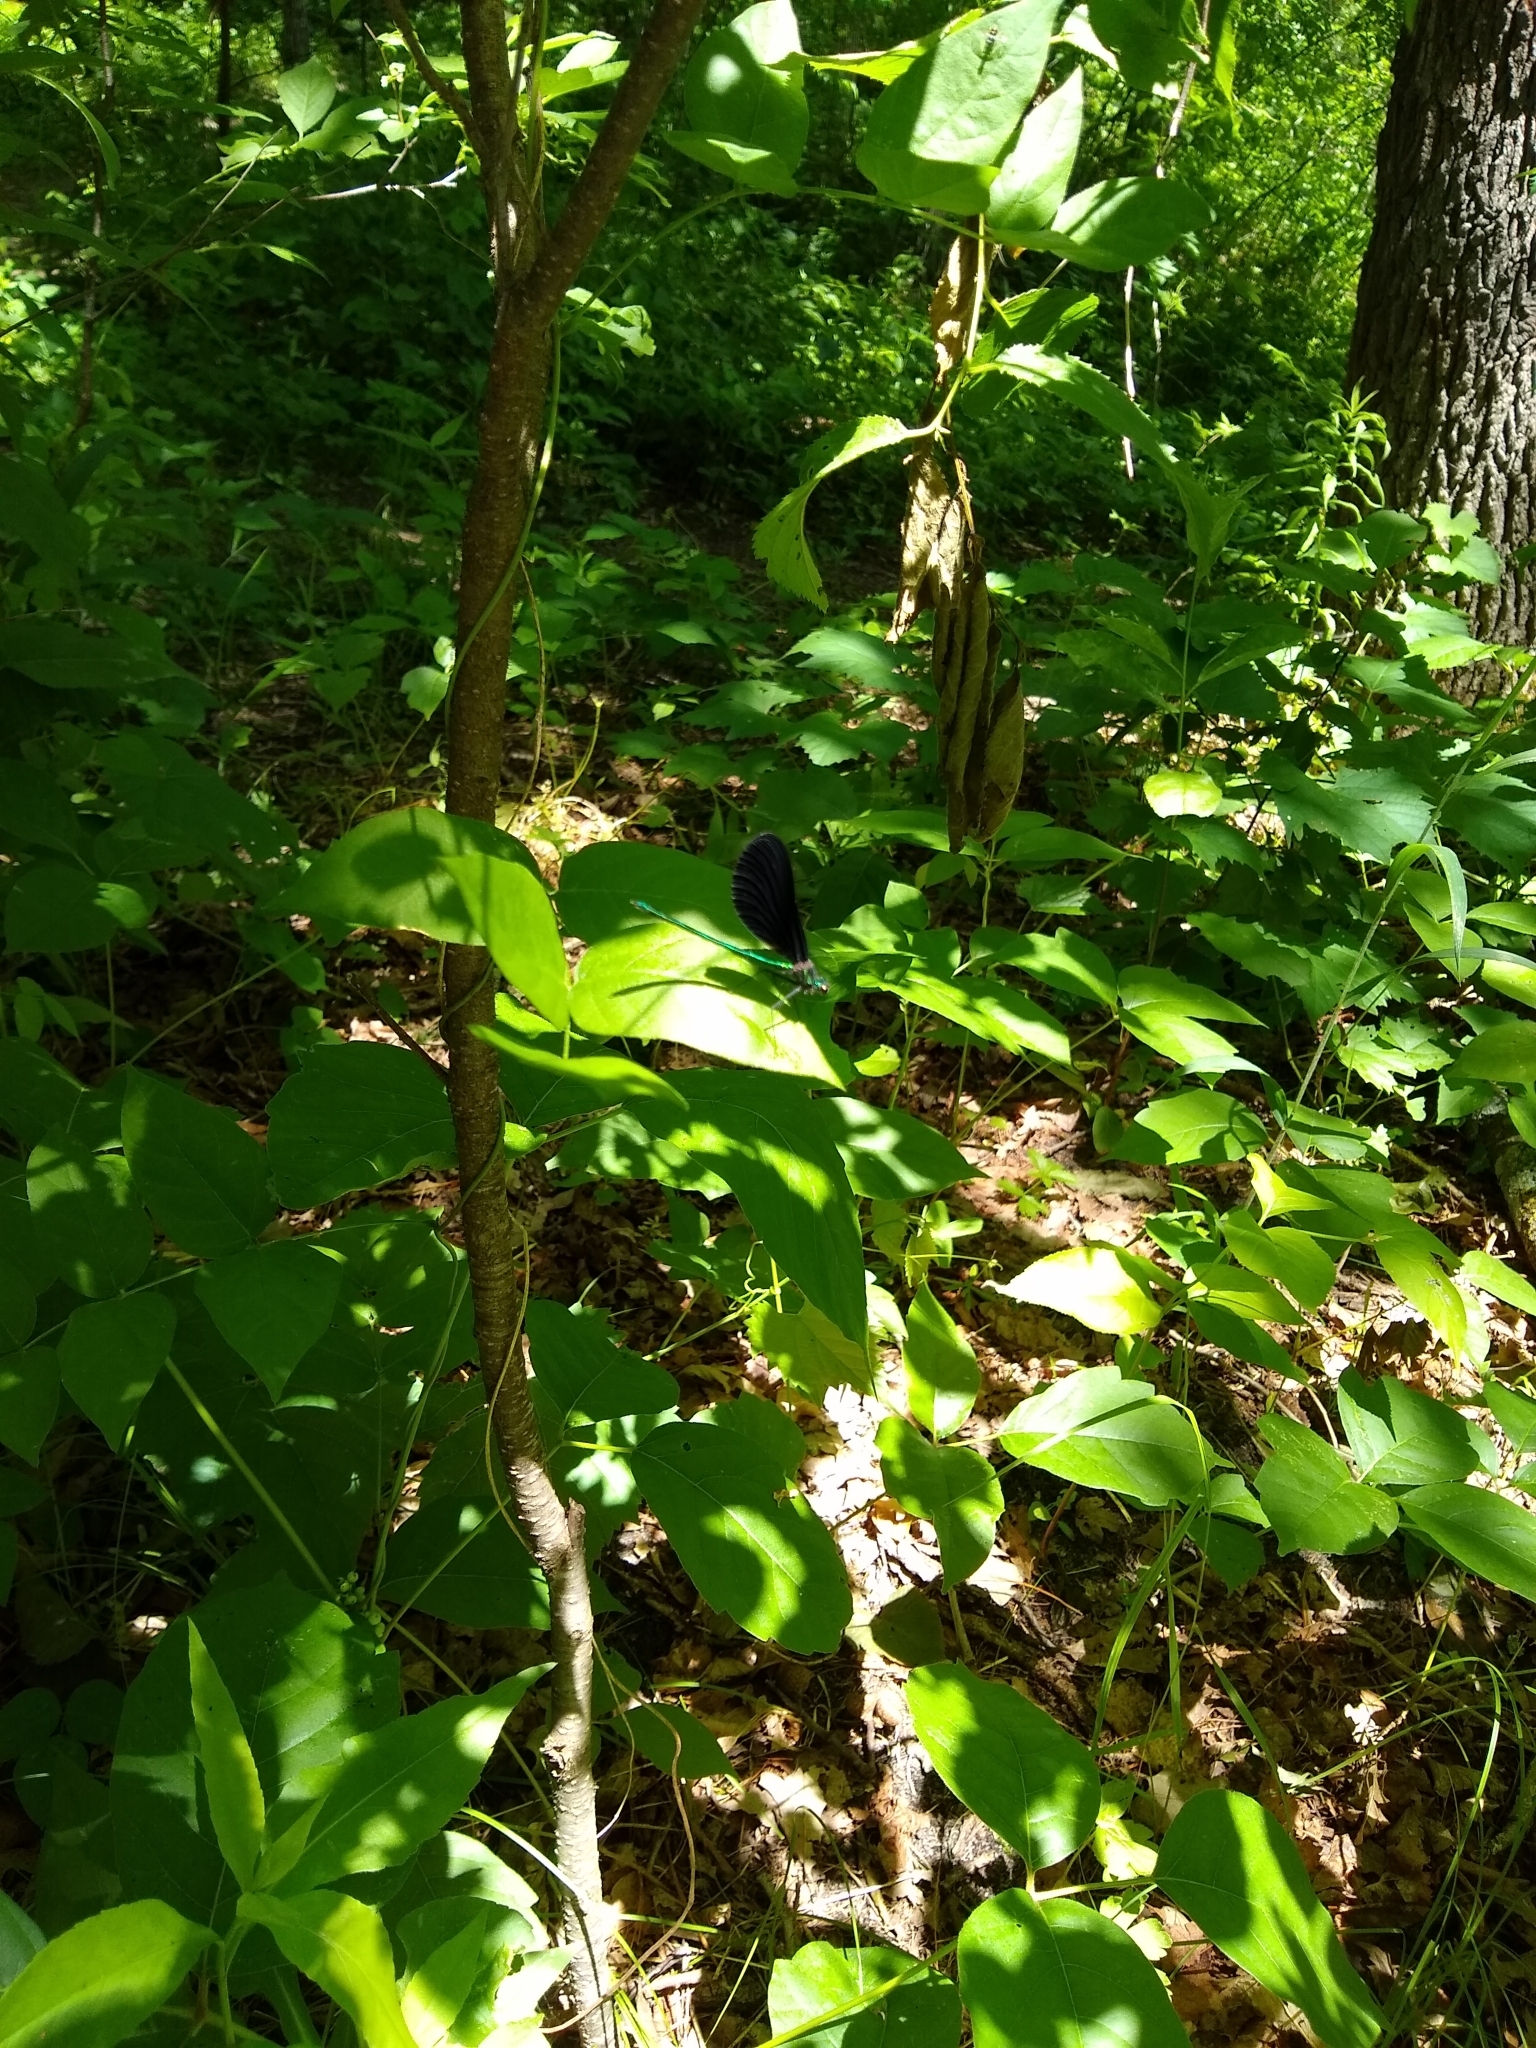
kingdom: Animalia
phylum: Arthropoda
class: Insecta
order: Odonata
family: Calopterygidae
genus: Calopteryx
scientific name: Calopteryx maculata
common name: Ebony jewelwing
